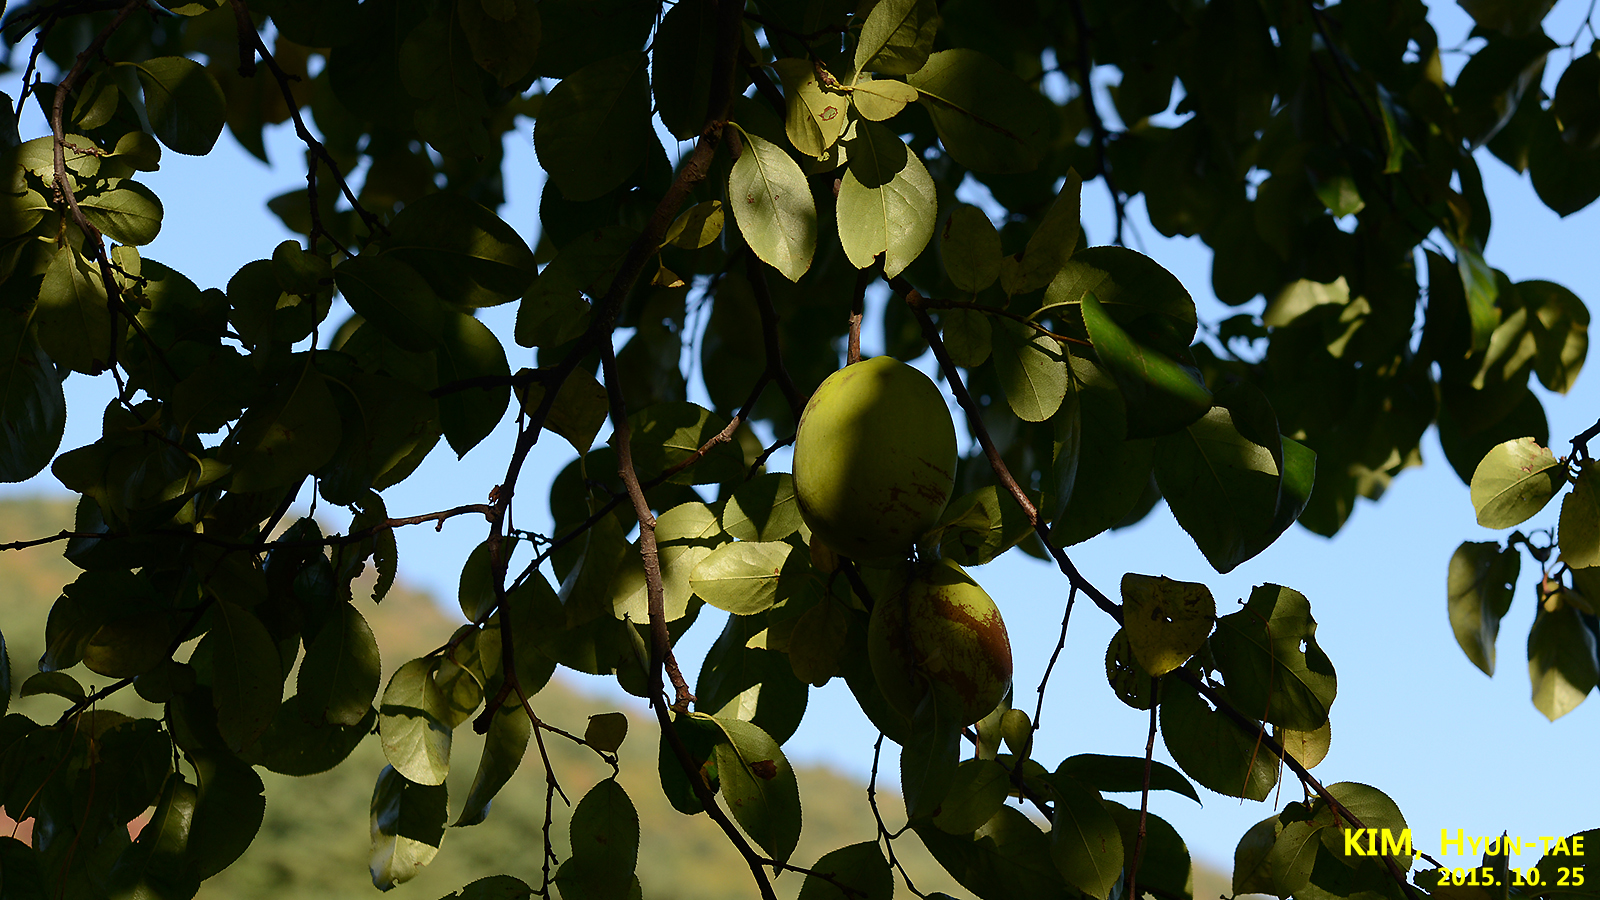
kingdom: Plantae
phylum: Tracheophyta
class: Magnoliopsida
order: Rosales
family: Rosaceae
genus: Pseudocydonia
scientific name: Pseudocydonia sinensis
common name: Chinese-quince
